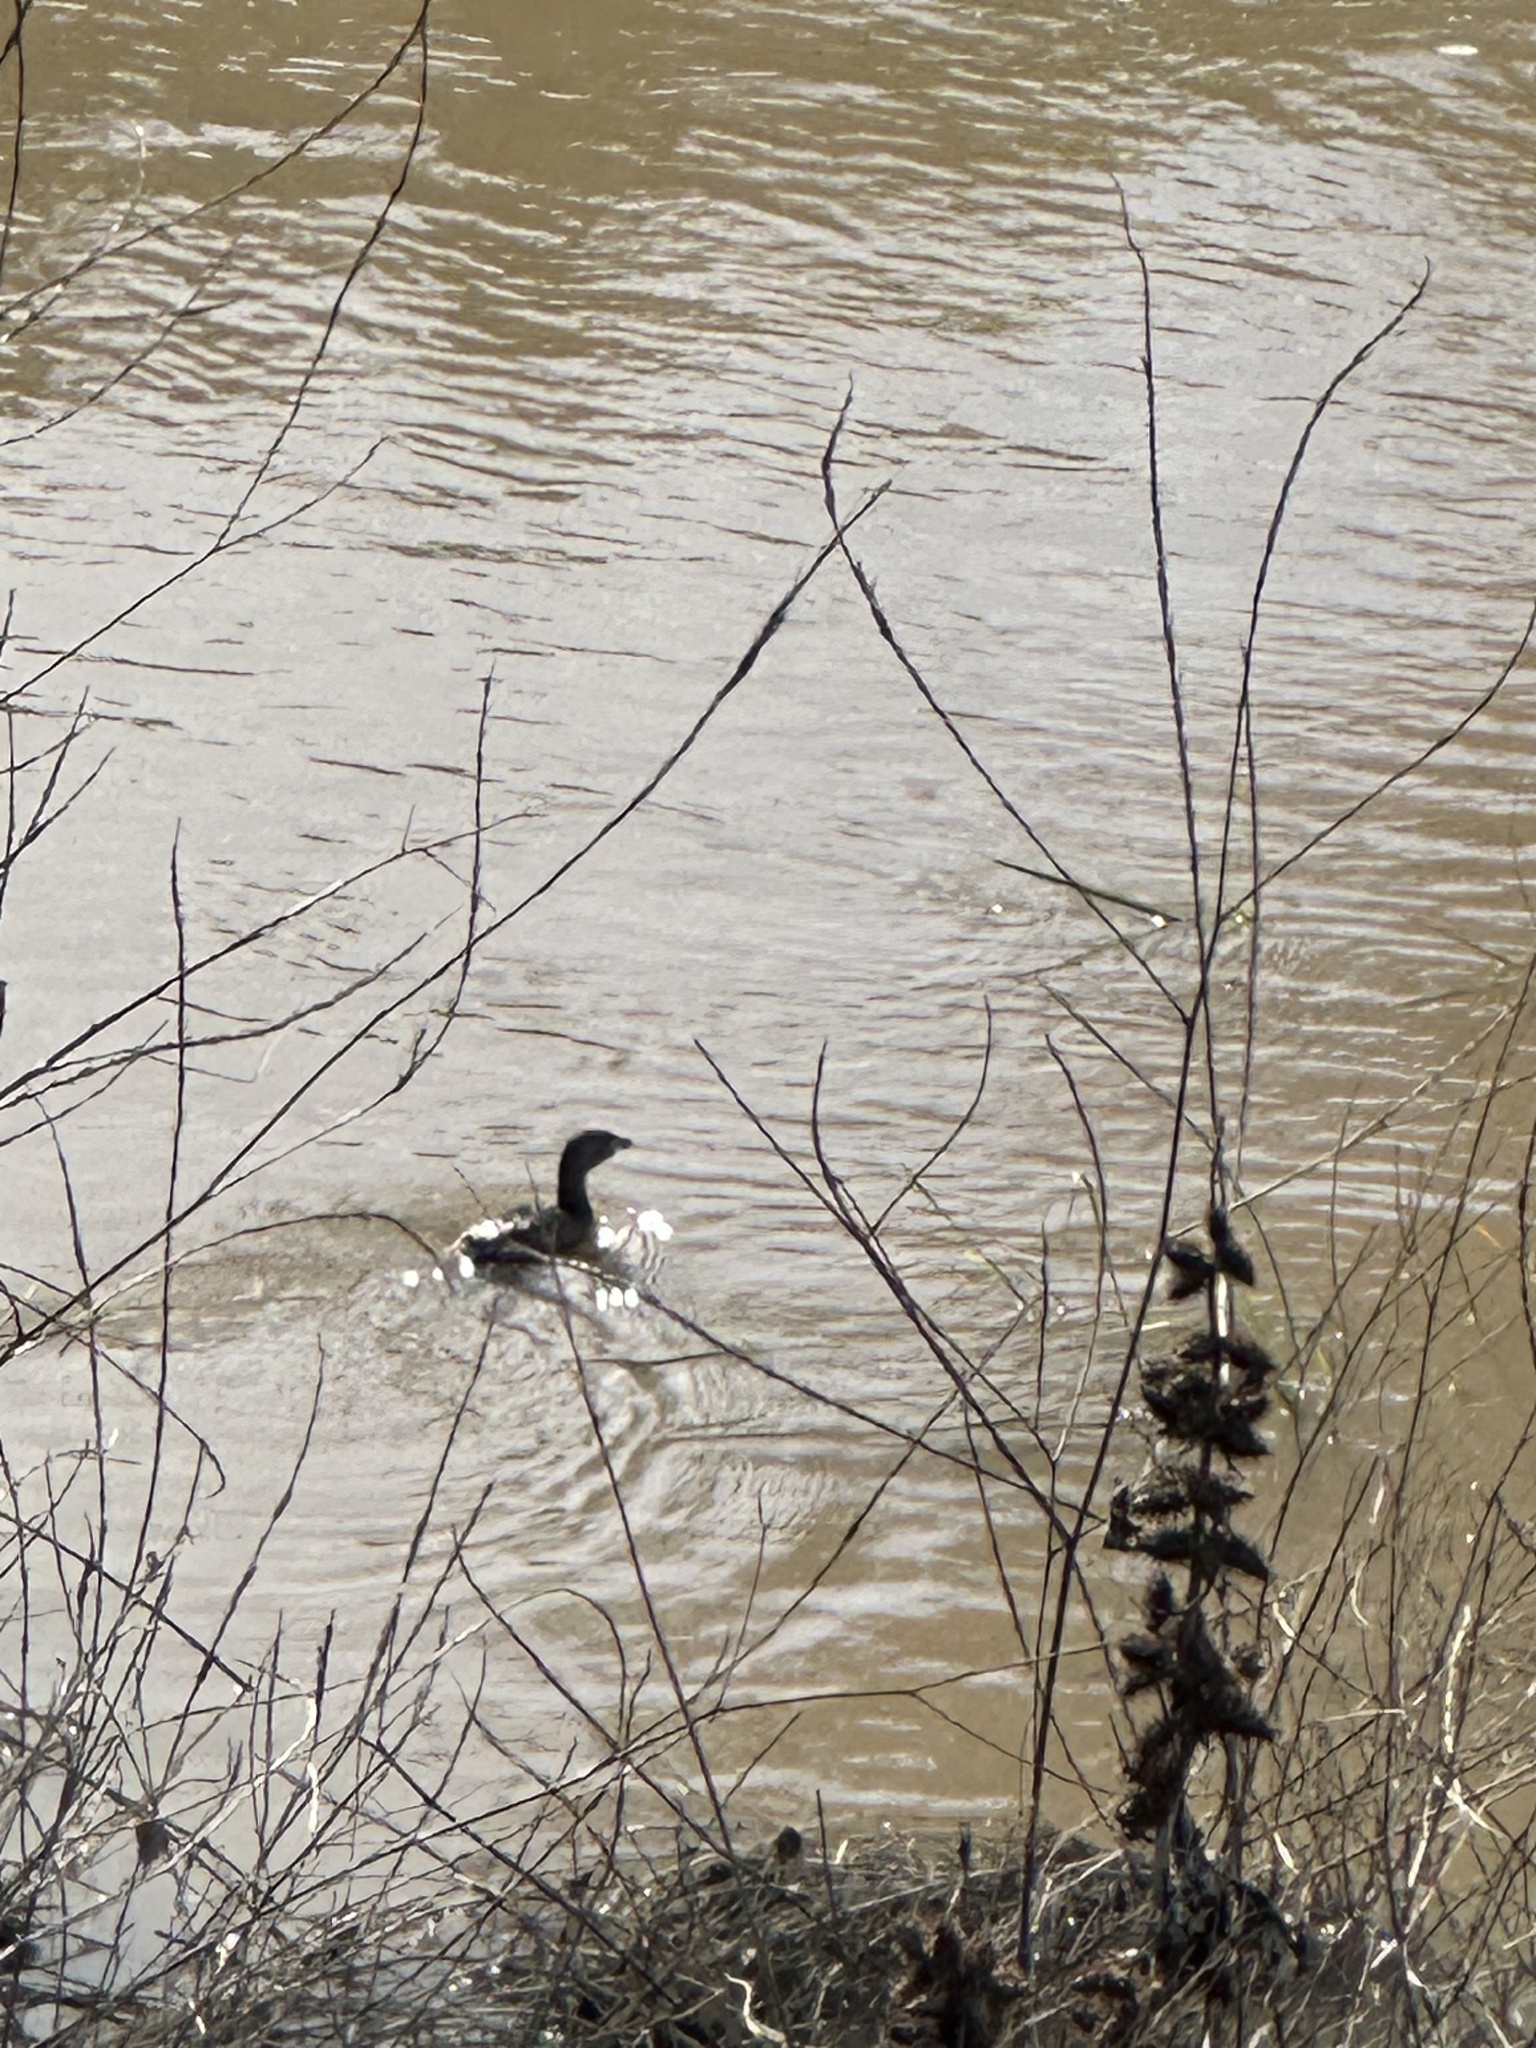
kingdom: Animalia
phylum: Chordata
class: Aves
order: Podicipediformes
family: Podicipedidae
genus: Podilymbus
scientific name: Podilymbus podiceps
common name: Pied-billed grebe
